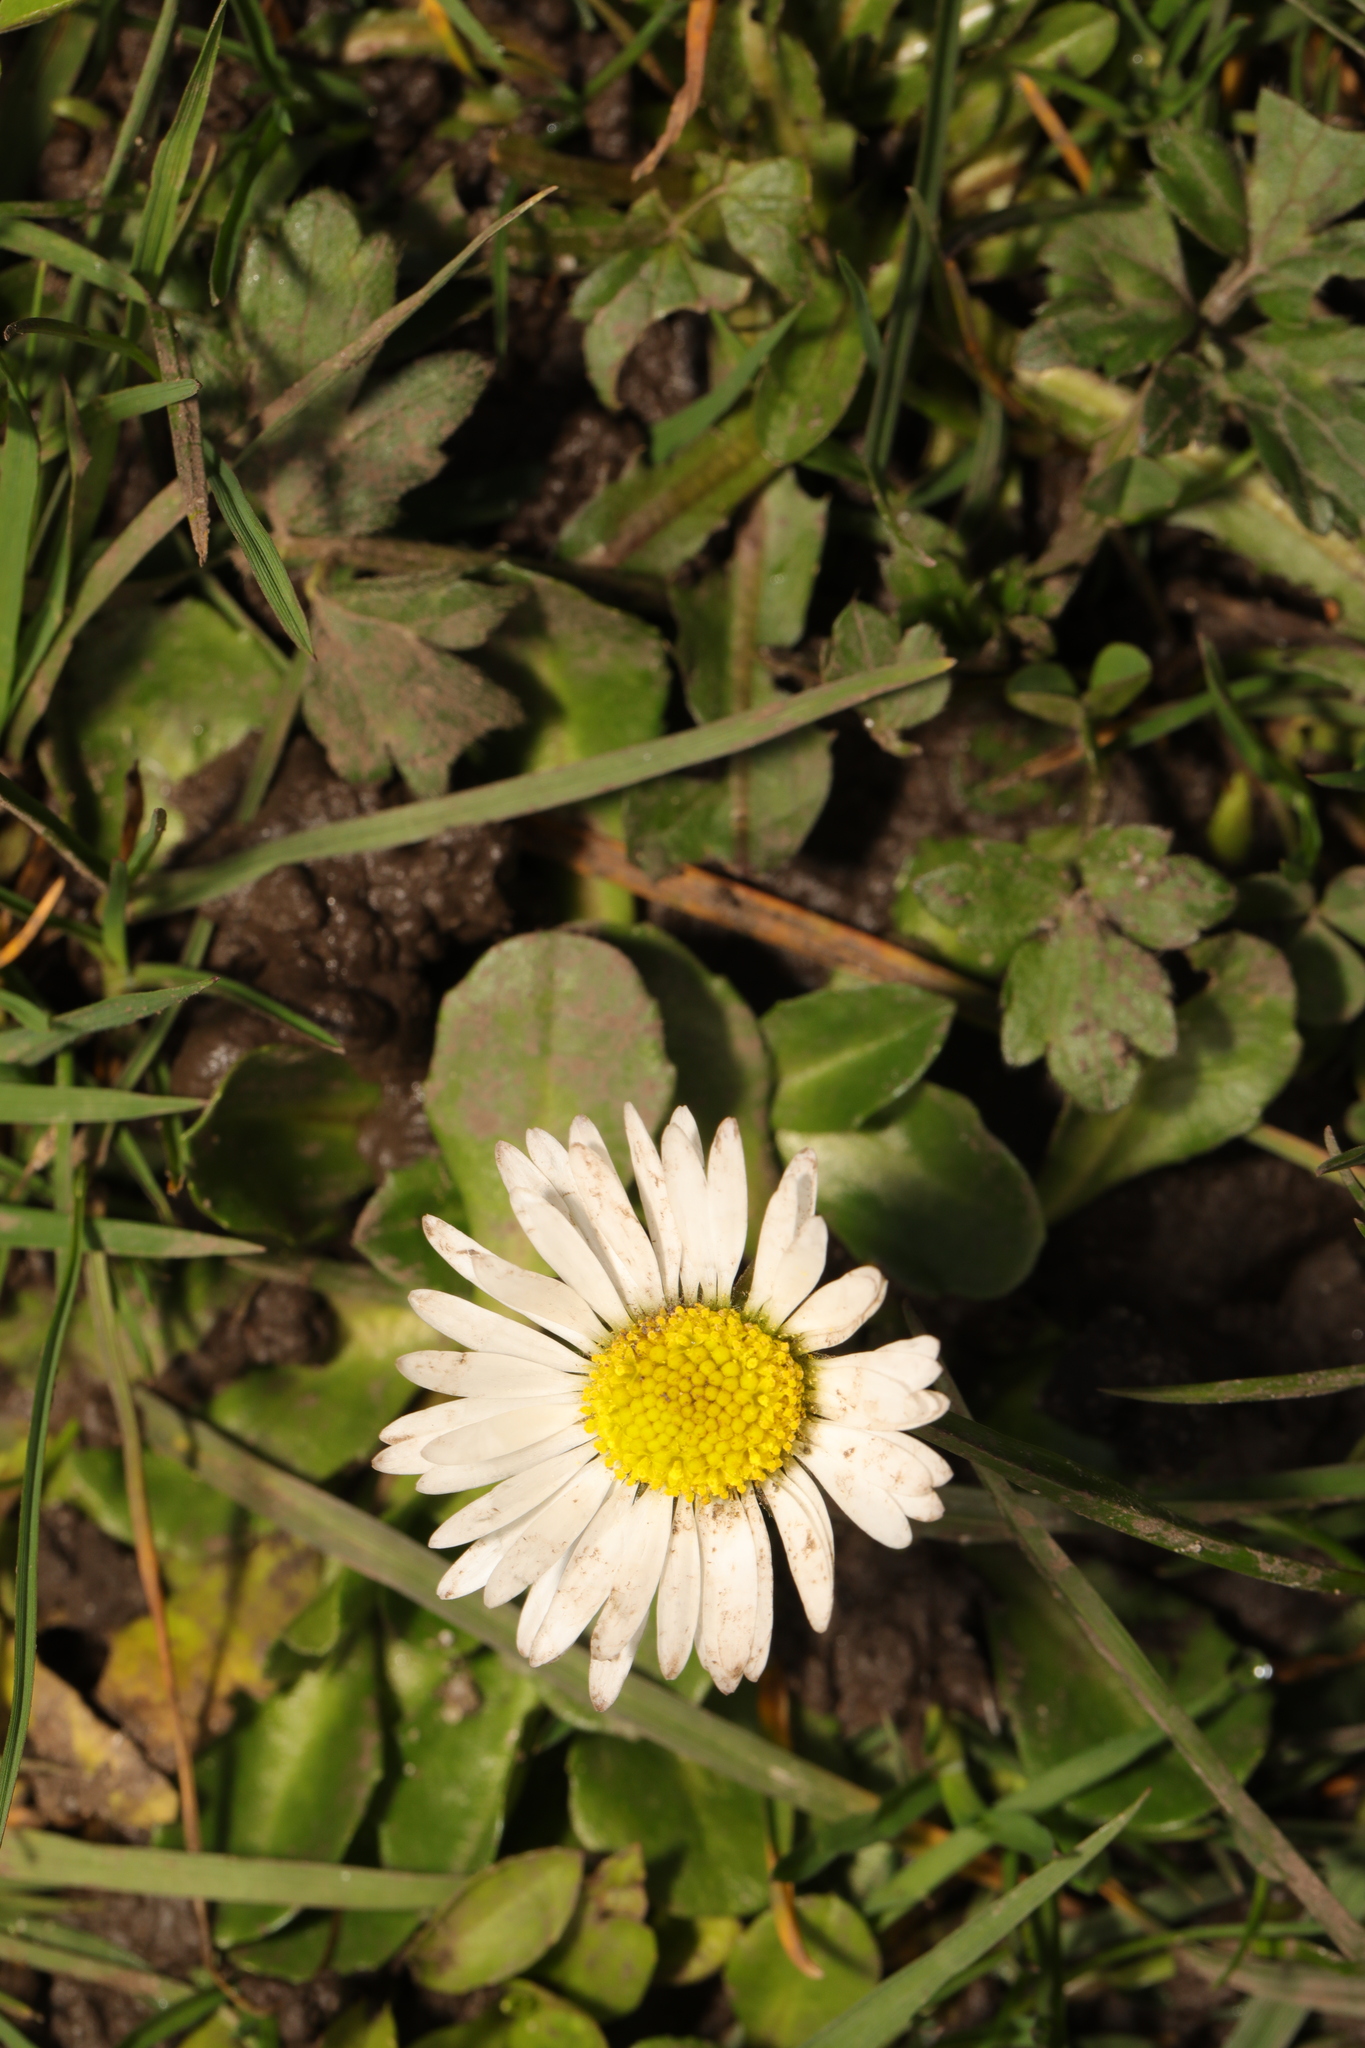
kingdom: Plantae
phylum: Tracheophyta
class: Magnoliopsida
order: Asterales
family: Asteraceae
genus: Bellis
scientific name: Bellis perennis
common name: Lawndaisy
